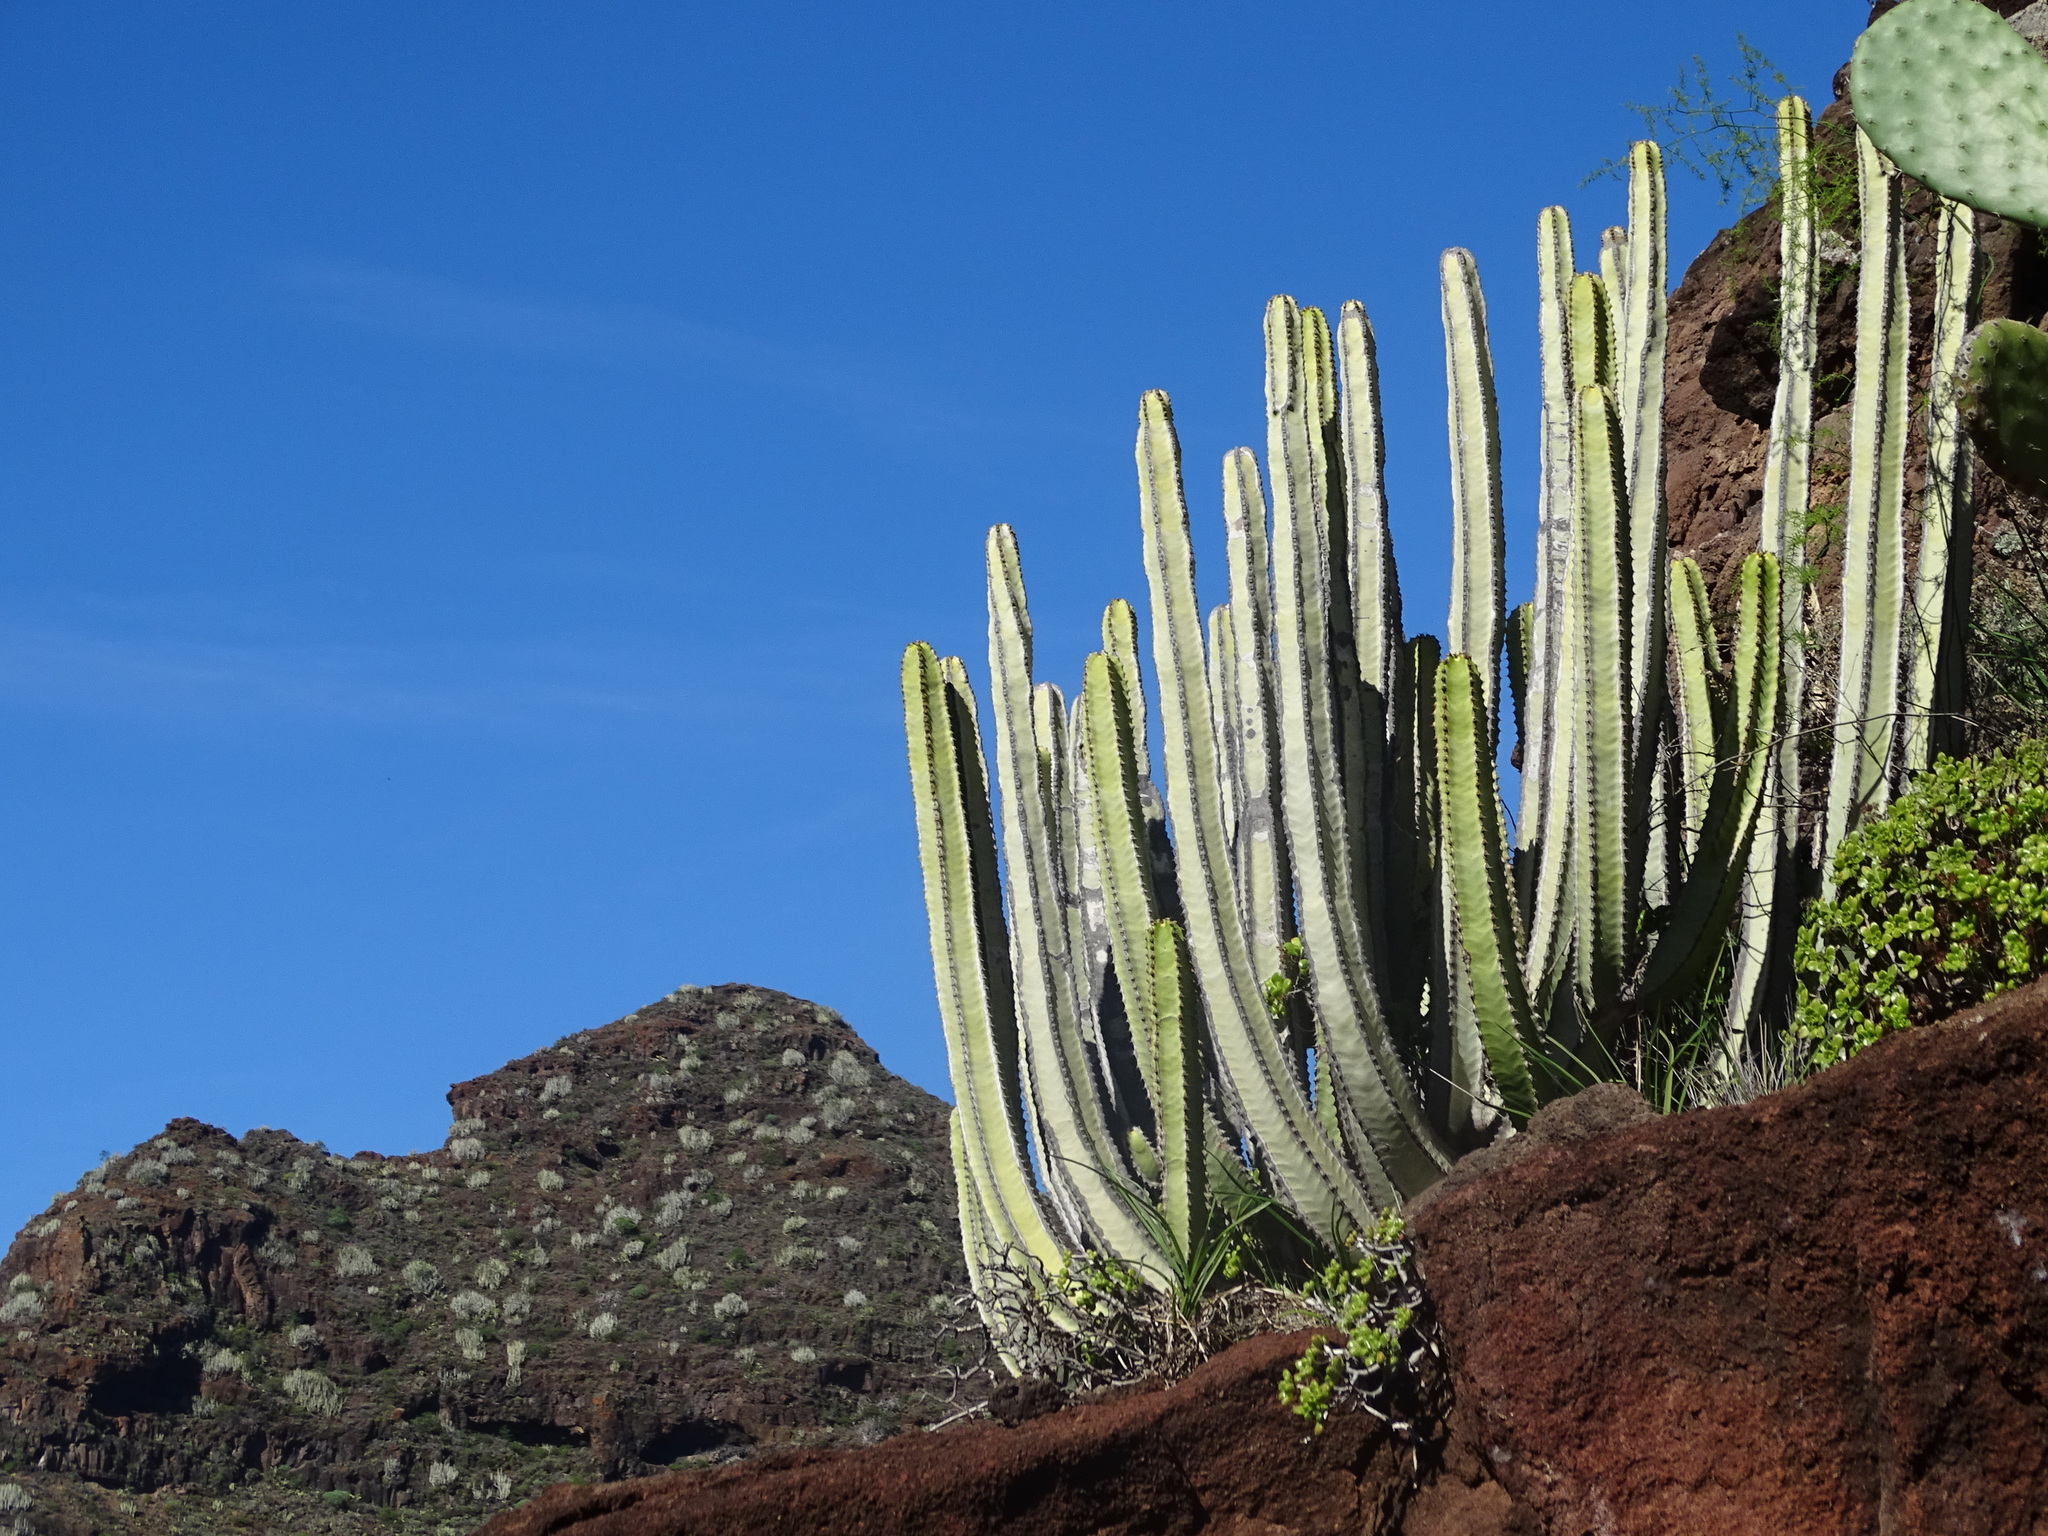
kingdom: Plantae
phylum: Tracheophyta
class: Magnoliopsida
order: Malpighiales
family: Euphorbiaceae
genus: Euphorbia
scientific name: Euphorbia canariensis
